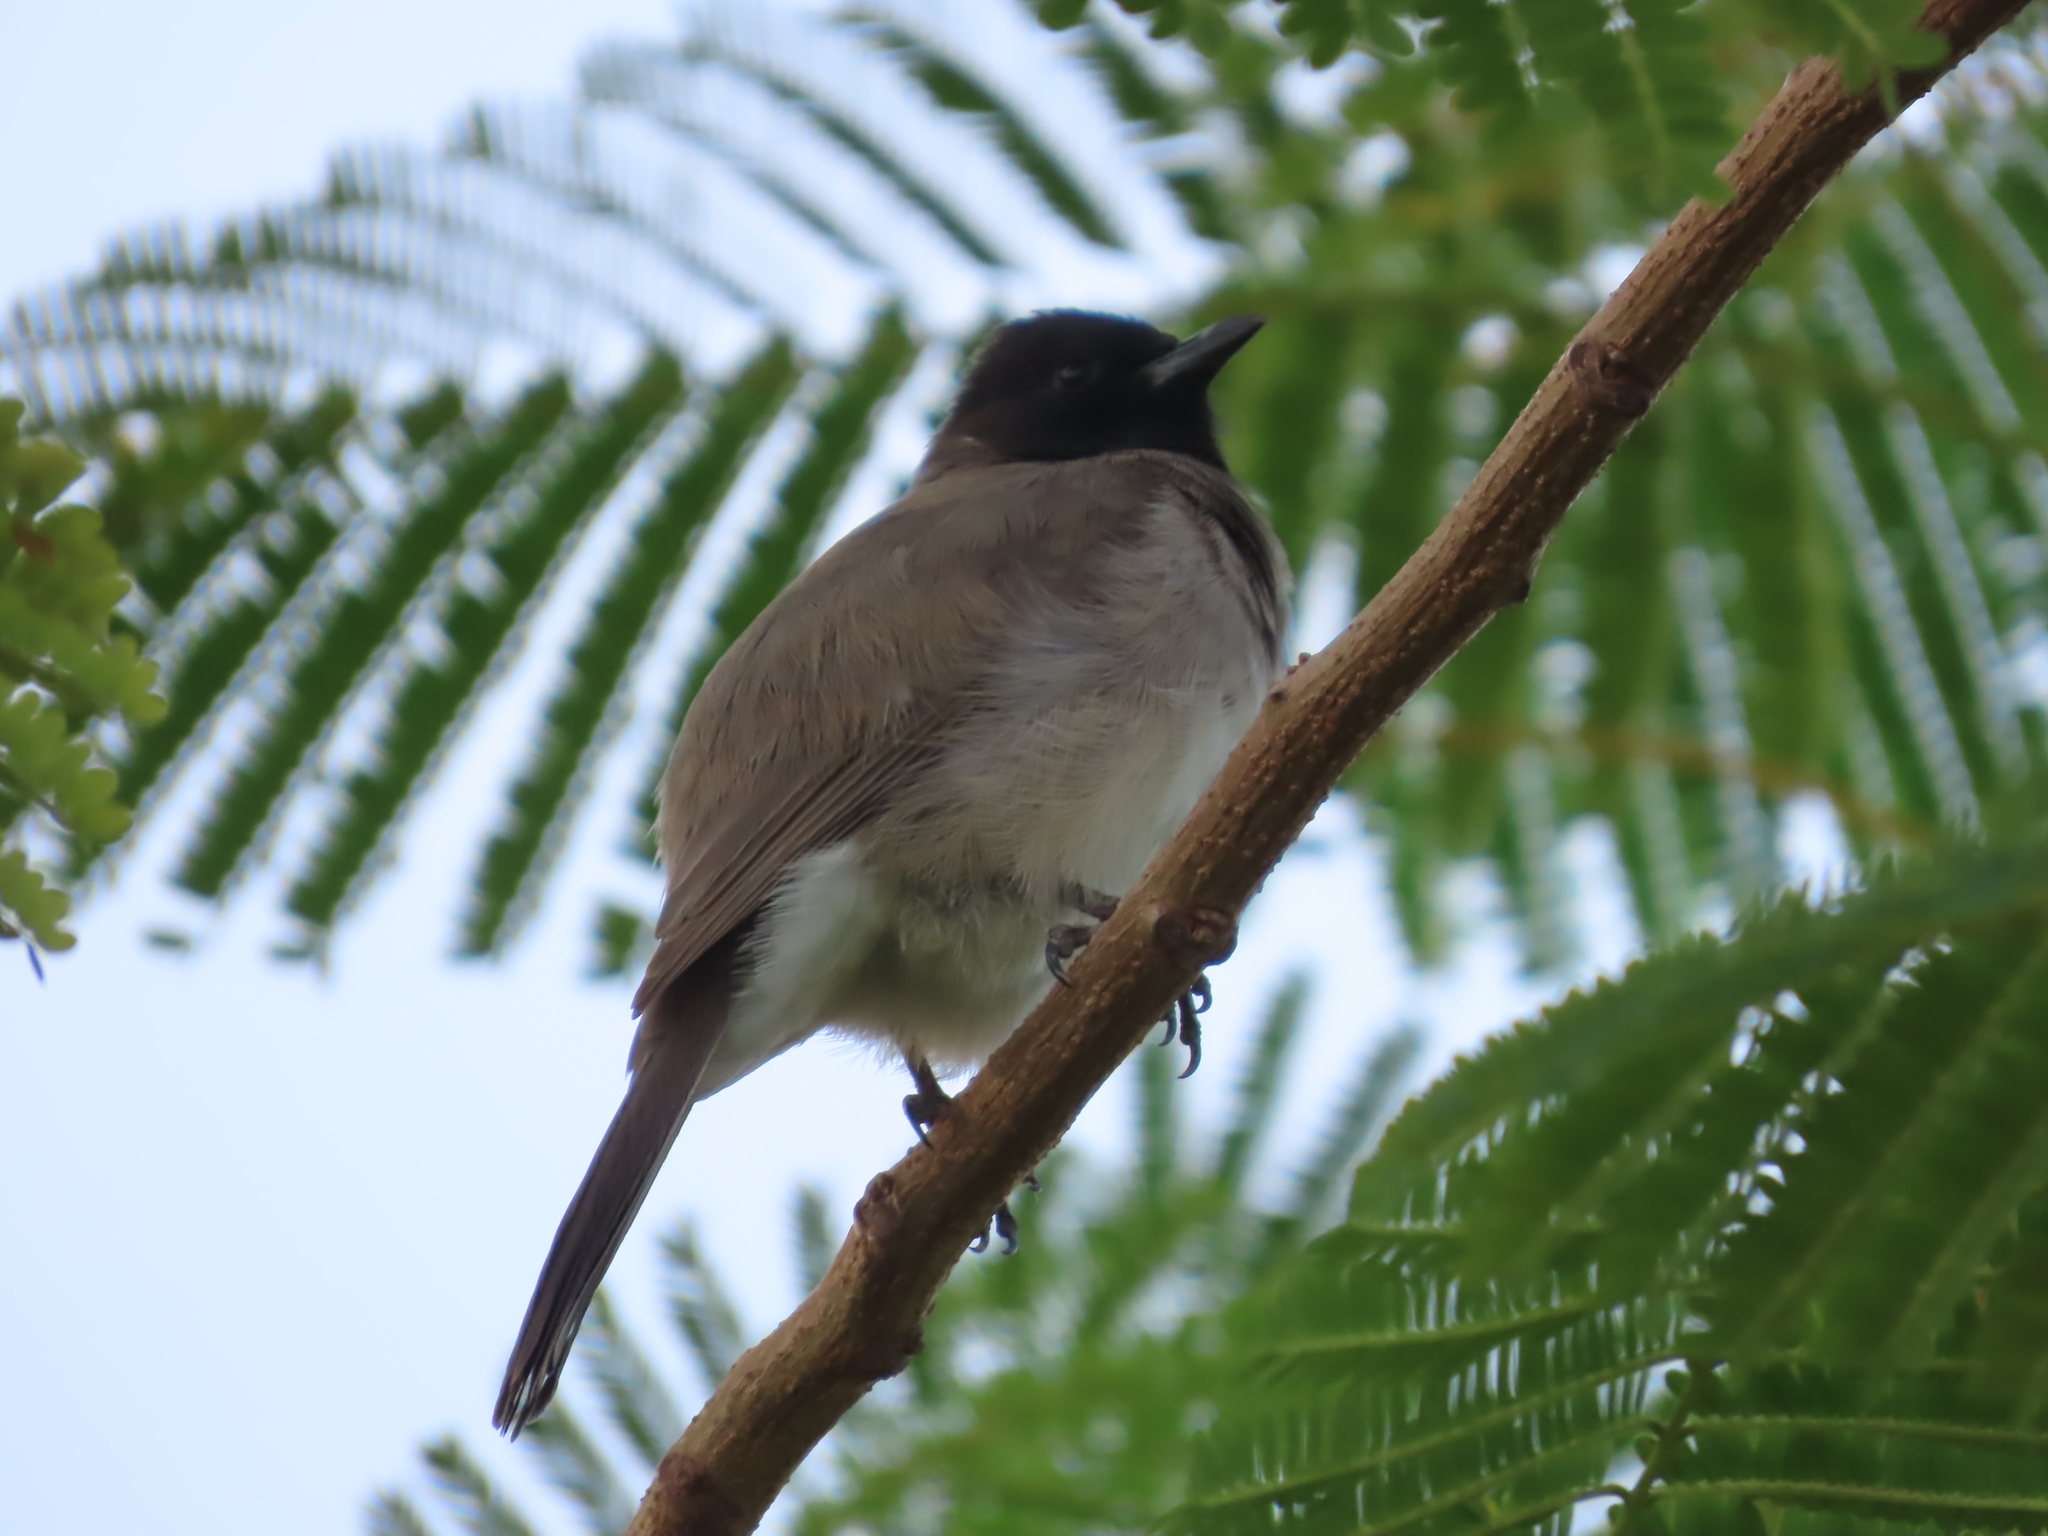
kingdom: Animalia
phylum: Chordata
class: Aves
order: Passeriformes
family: Pycnonotidae
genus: Pycnonotus
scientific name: Pycnonotus barbatus
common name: Common bulbul
